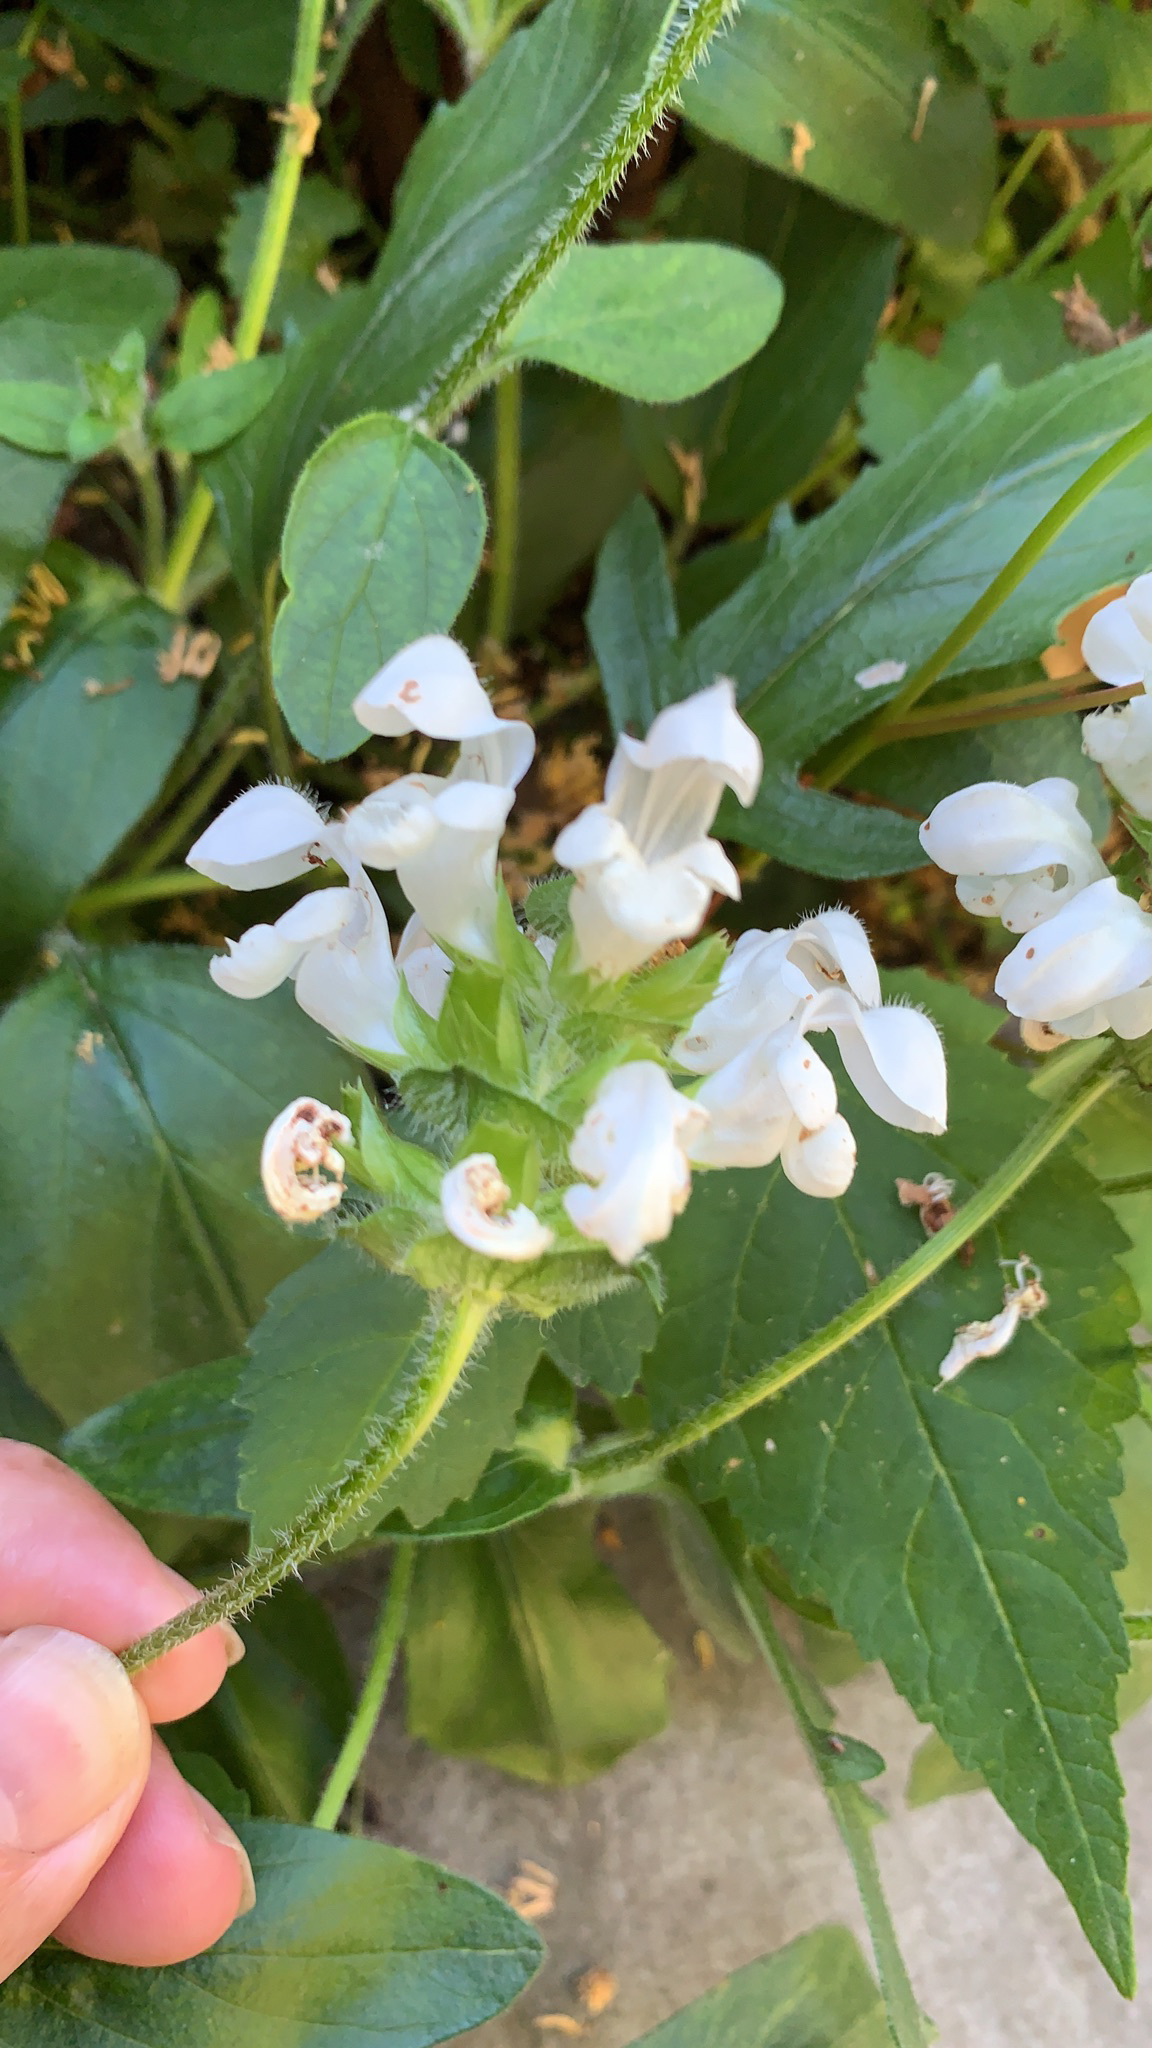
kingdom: Plantae
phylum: Tracheophyta
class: Magnoliopsida
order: Lamiales
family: Lamiaceae
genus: Prunella
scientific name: Prunella laciniata
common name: Cut-leaved selfheal
